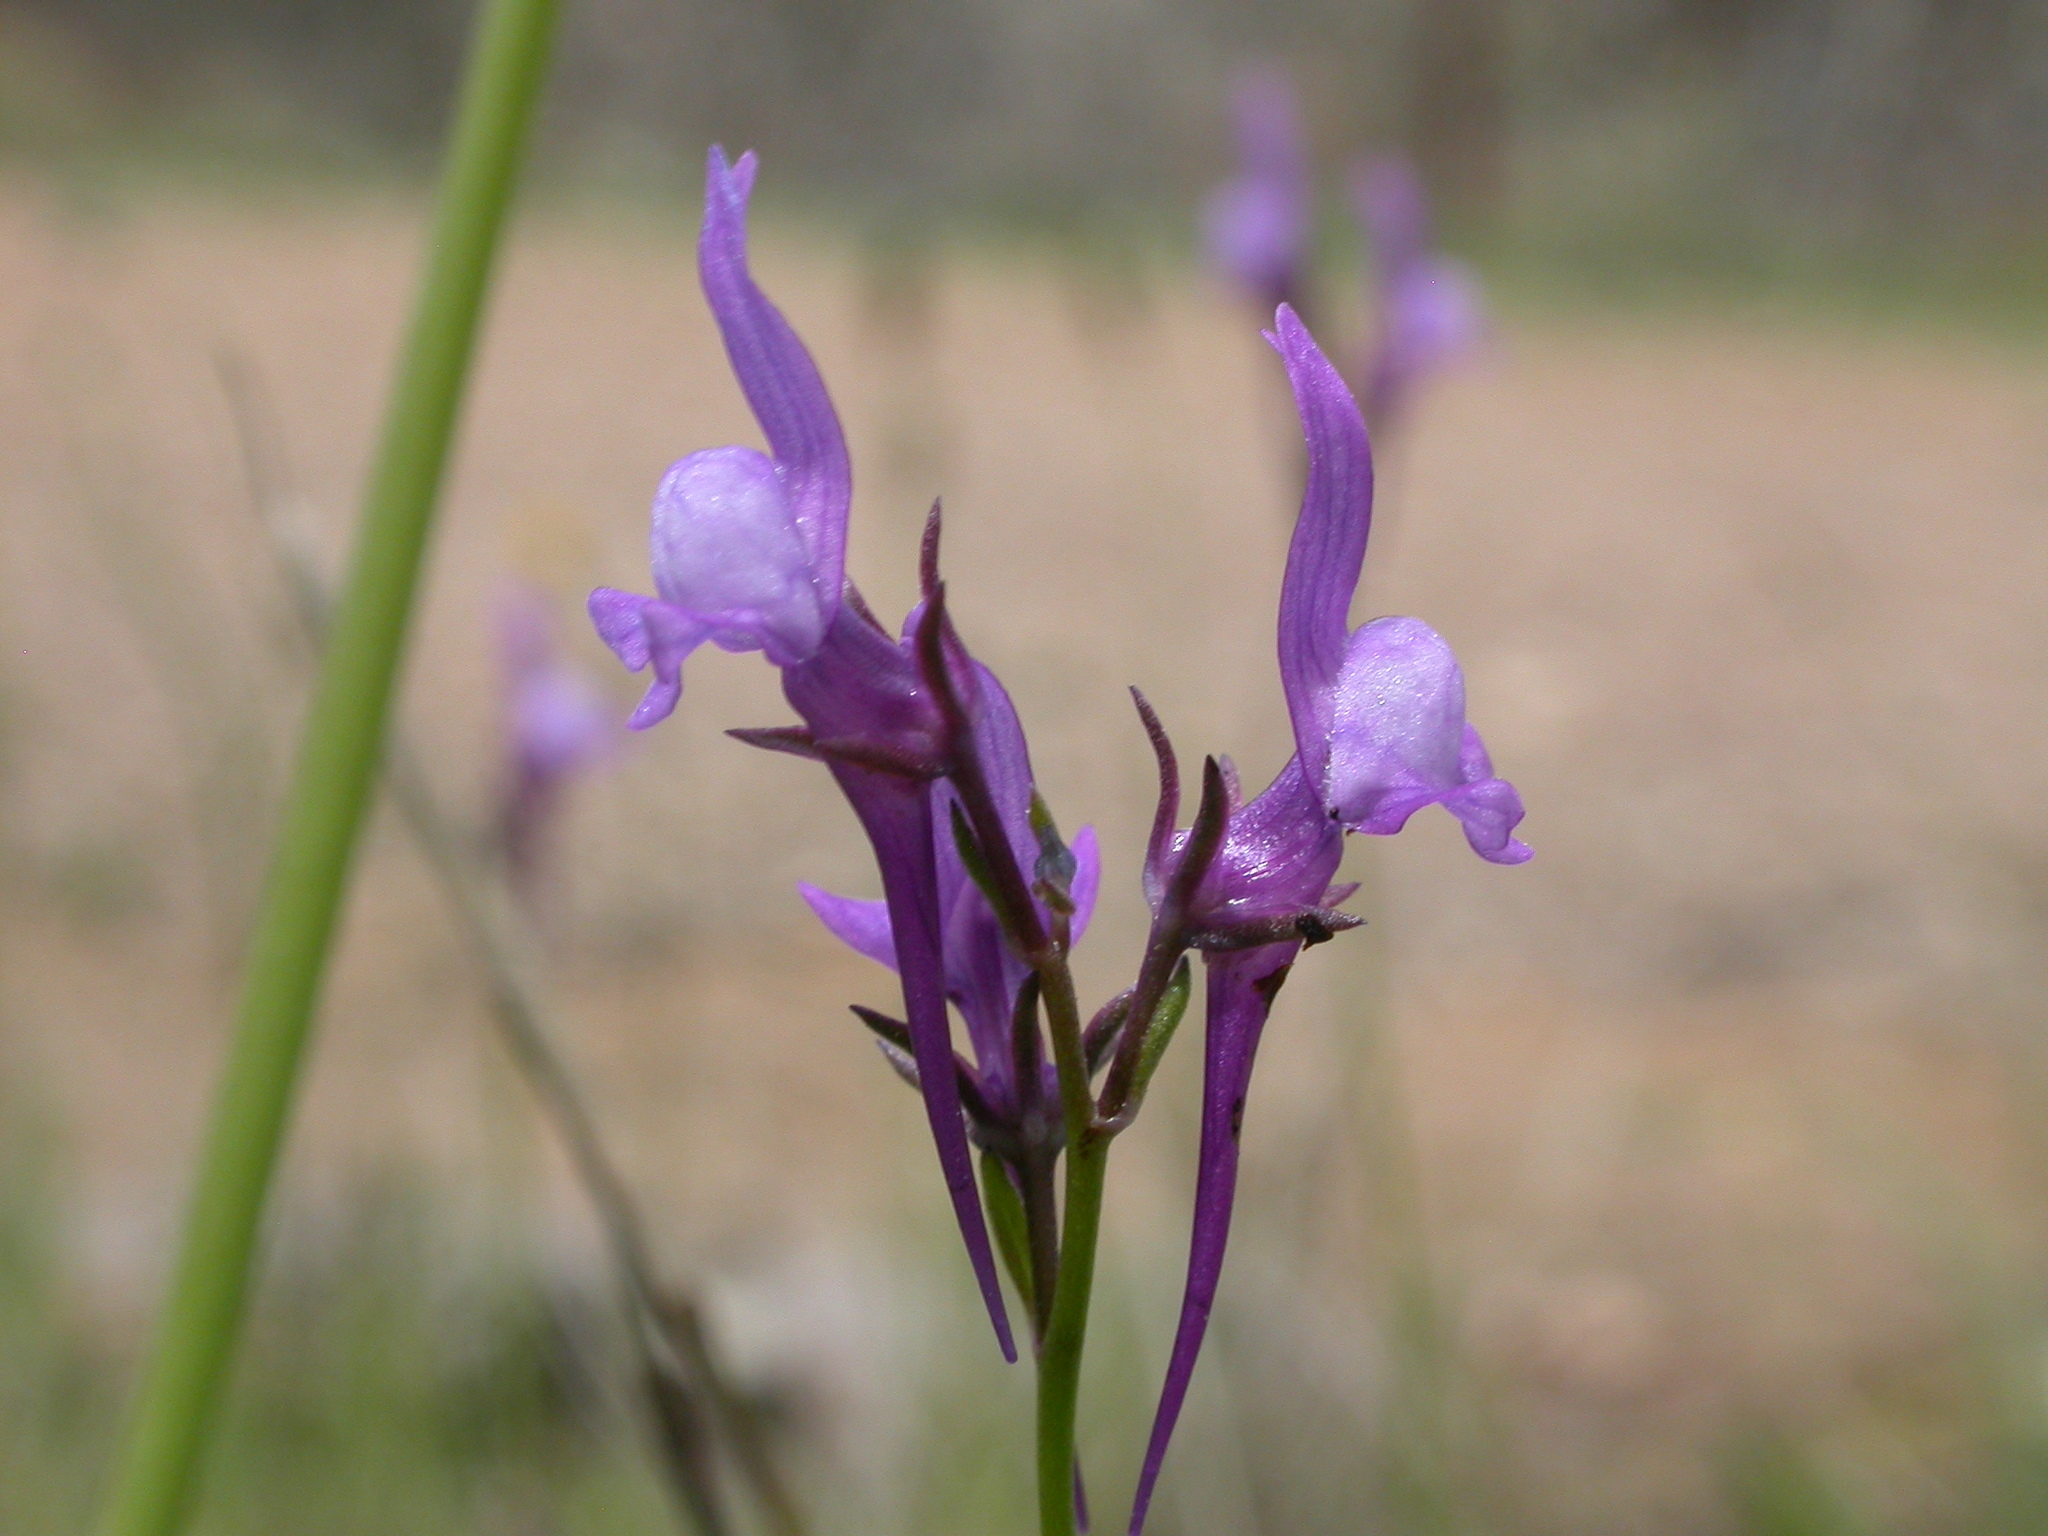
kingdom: Plantae
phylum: Tracheophyta
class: Magnoliopsida
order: Lamiales
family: Plantaginaceae
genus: Linaria
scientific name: Linaria pelisseriana
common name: Jersey toadflax
